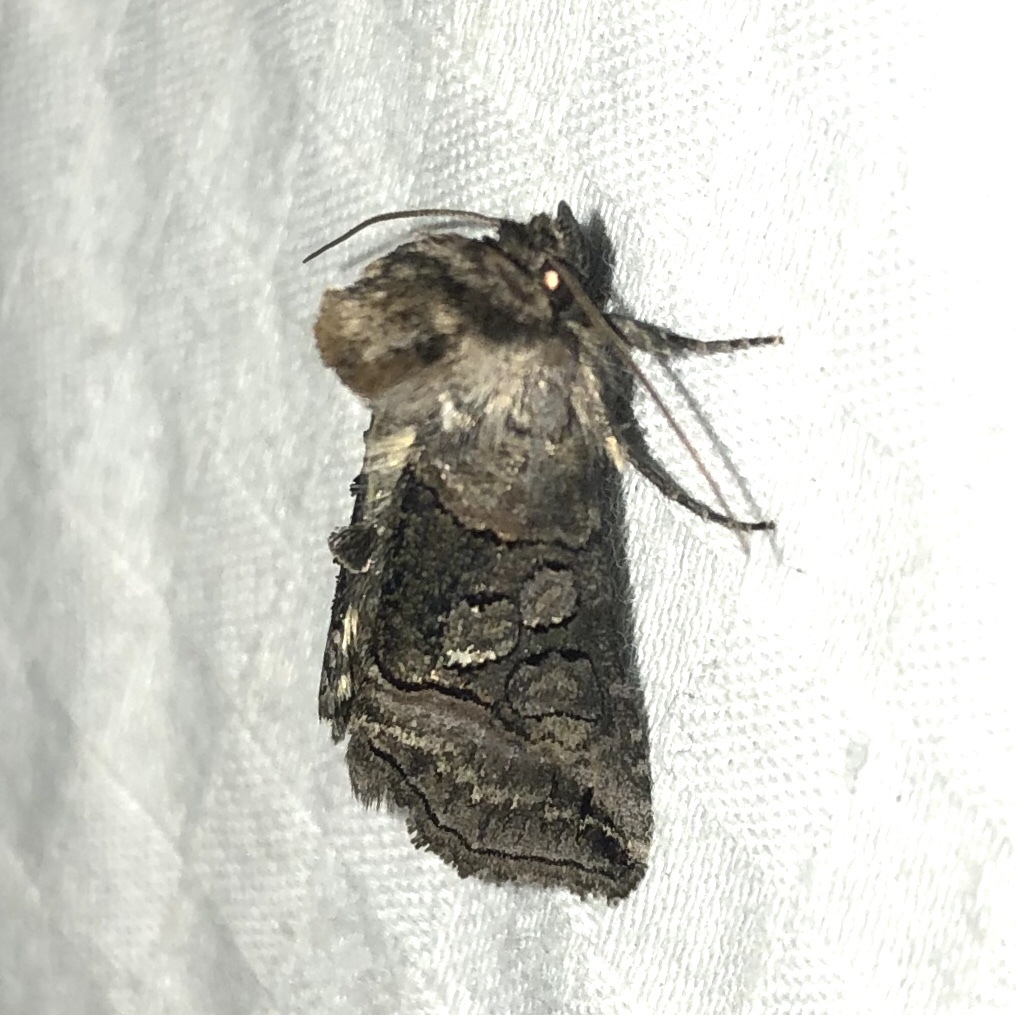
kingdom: Animalia
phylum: Arthropoda
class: Insecta
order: Lepidoptera
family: Noctuidae
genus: Abrostola
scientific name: Abrostola urentis
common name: Spectacled nettle moth
